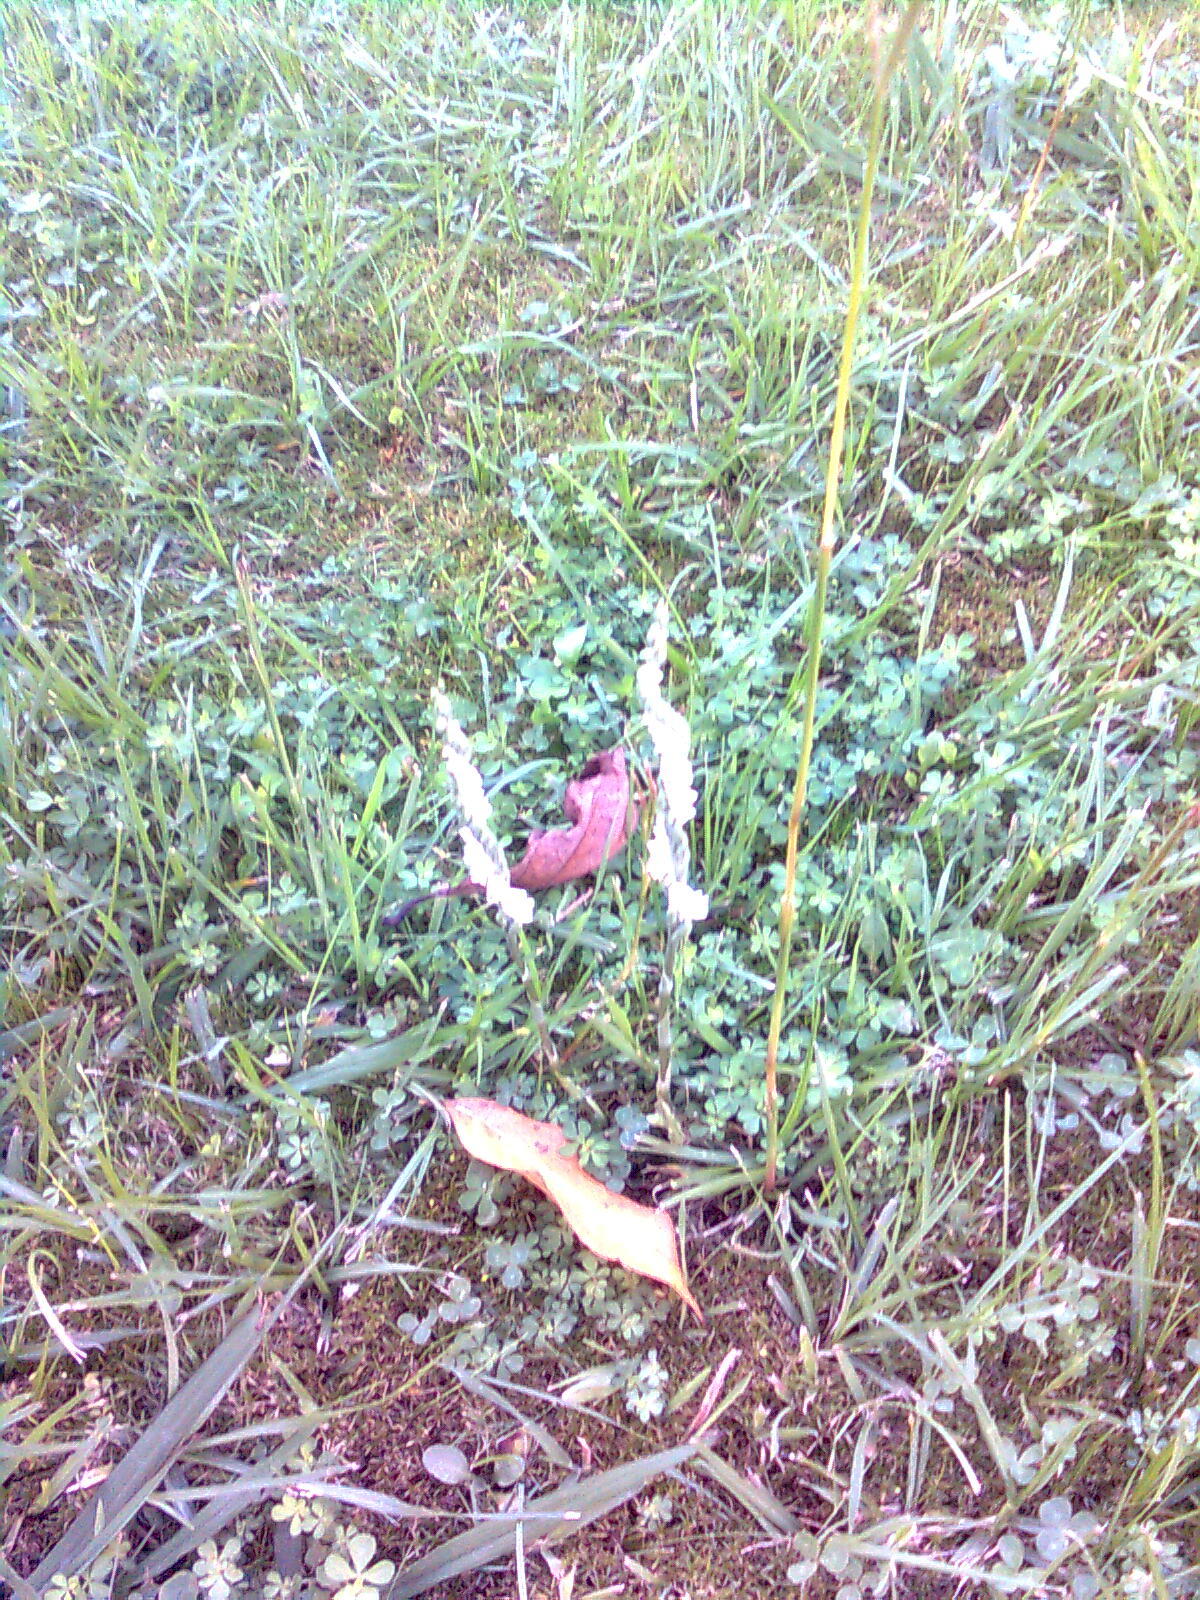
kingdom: Plantae
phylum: Tracheophyta
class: Liliopsida
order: Asparagales
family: Orchidaceae
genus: Spiranthes
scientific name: Spiranthes spiralis
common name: Autumn lady's-tresses
